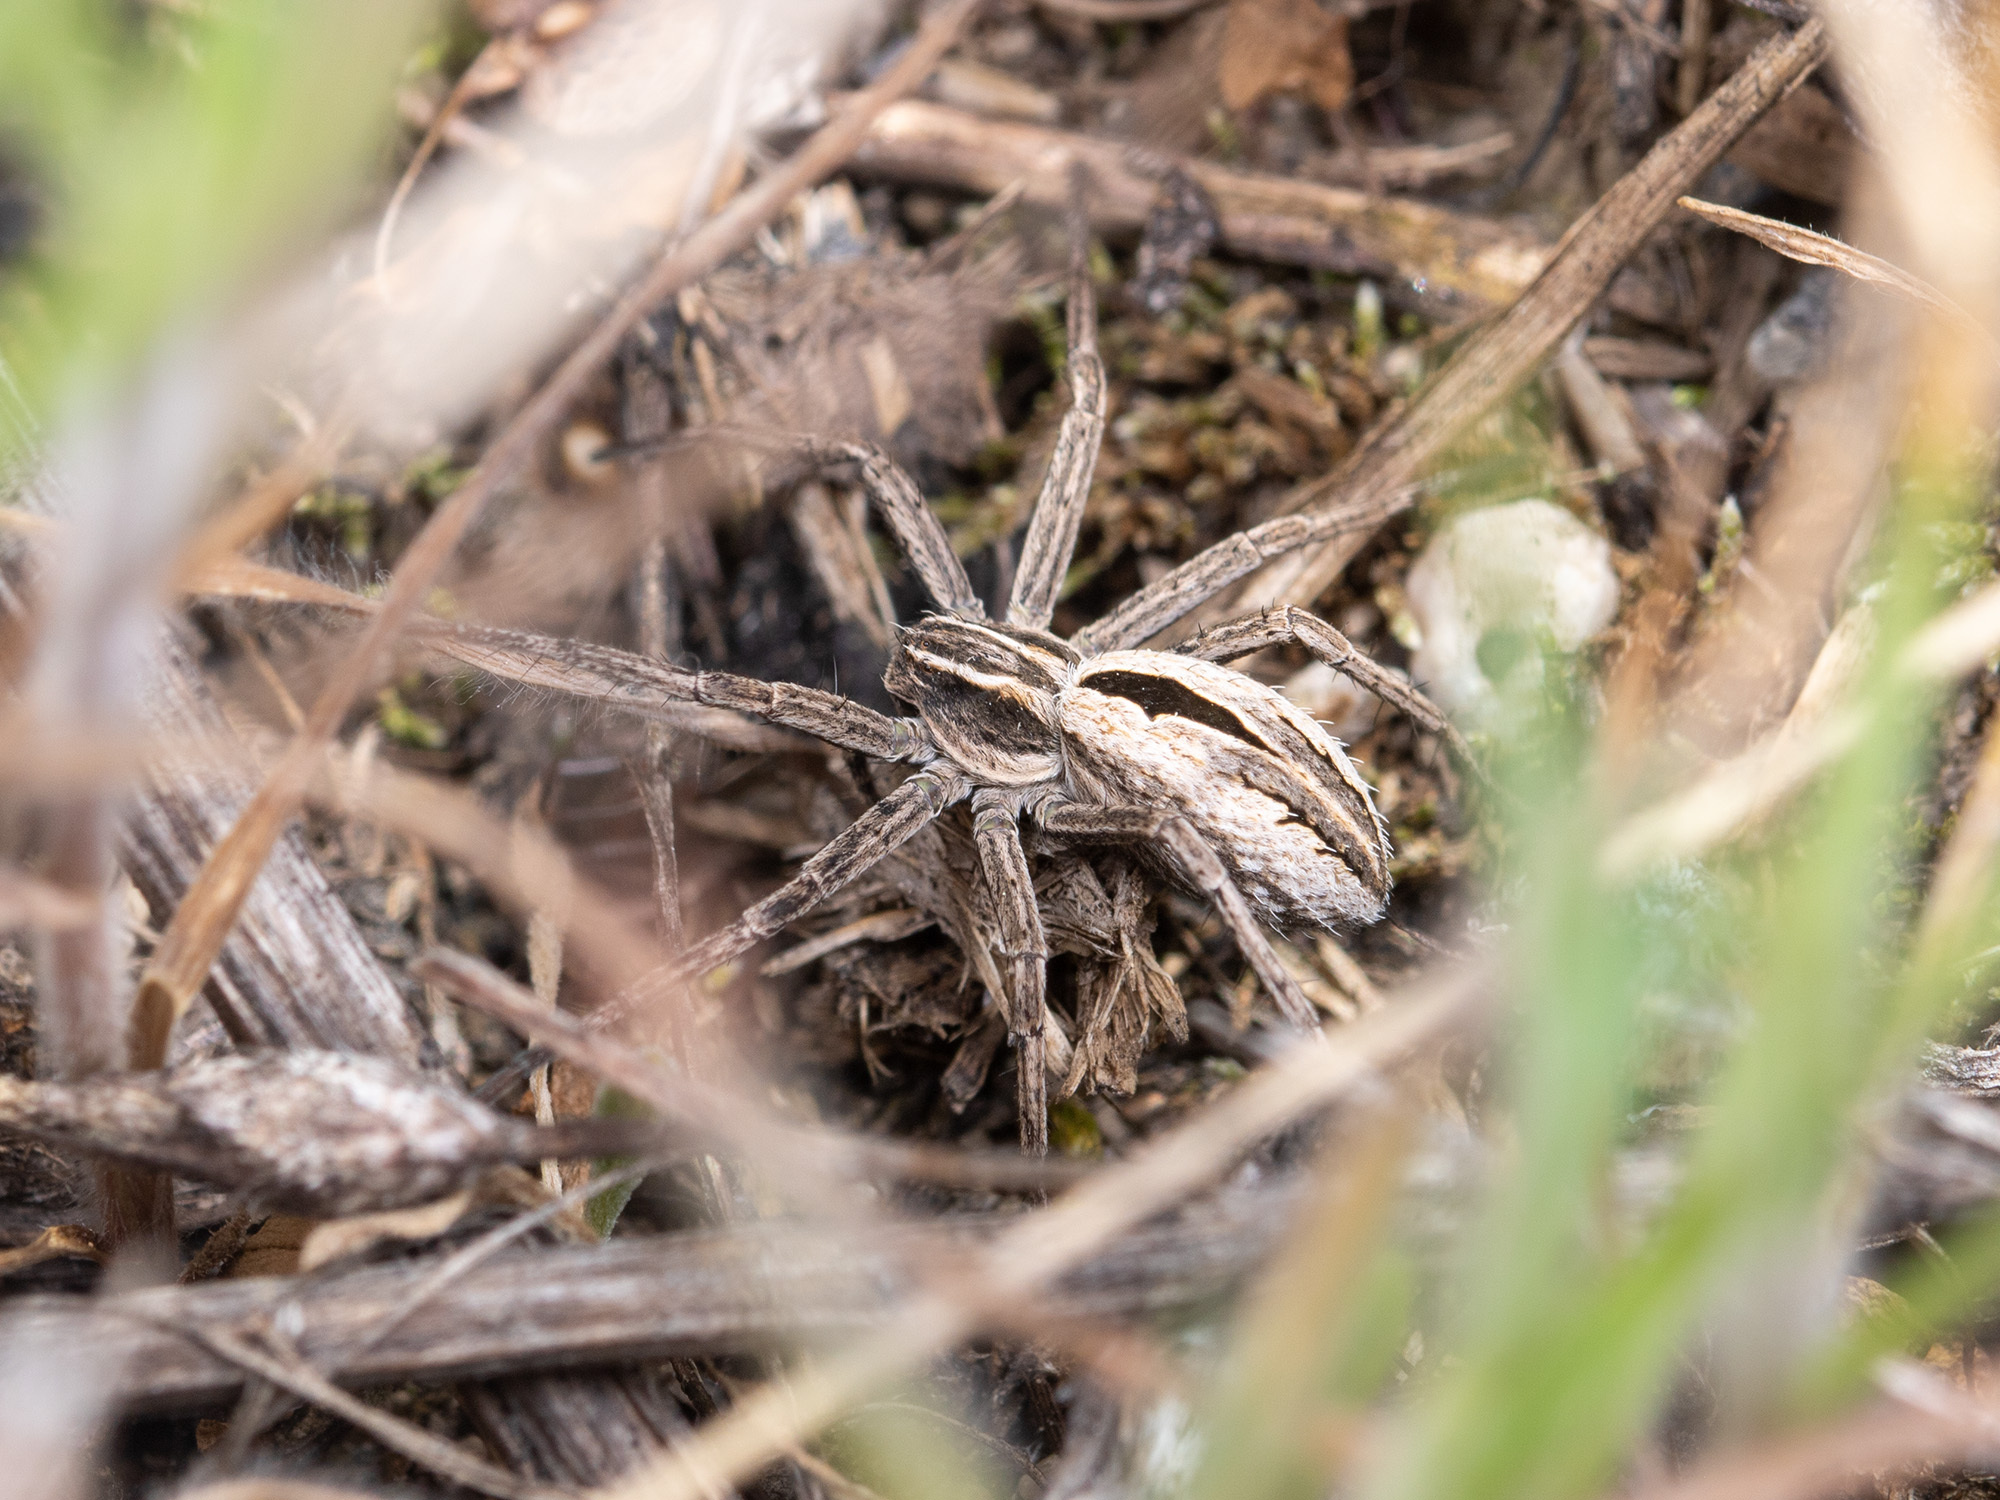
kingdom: Animalia
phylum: Arthropoda
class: Arachnida
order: Araneae
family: Philodromidae
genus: Thanatus
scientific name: Thanatus arenarius
